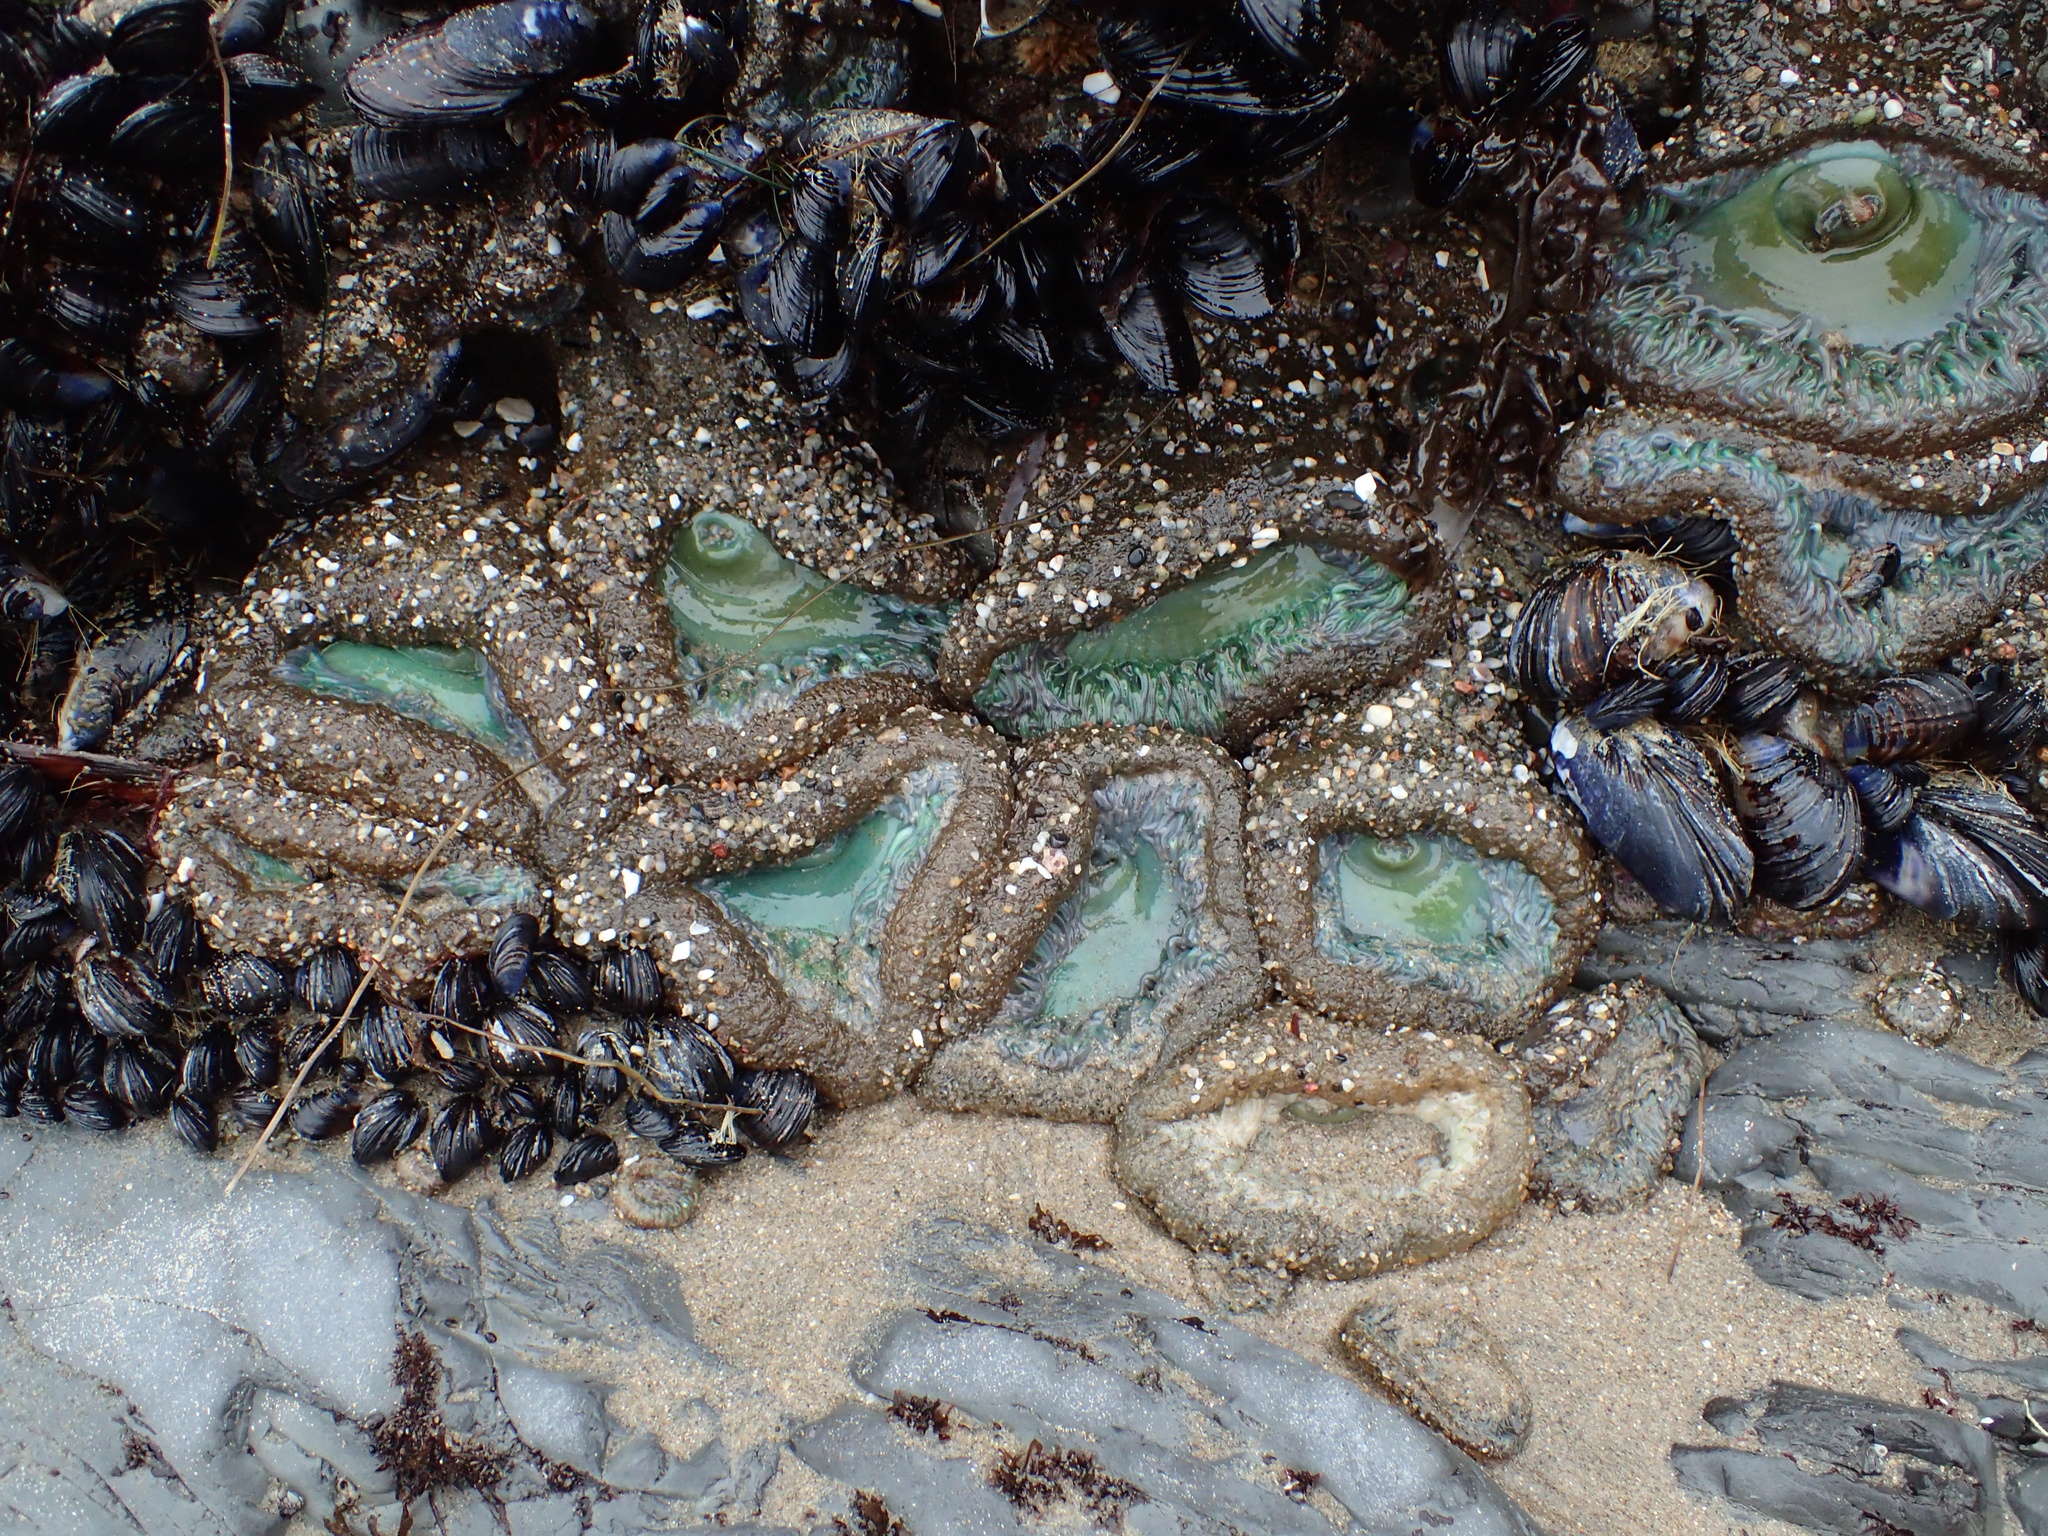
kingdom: Animalia
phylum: Cnidaria
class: Anthozoa
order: Actiniaria
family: Actiniidae
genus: Anthopleura
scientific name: Anthopleura xanthogrammica
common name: Giant green anemone
